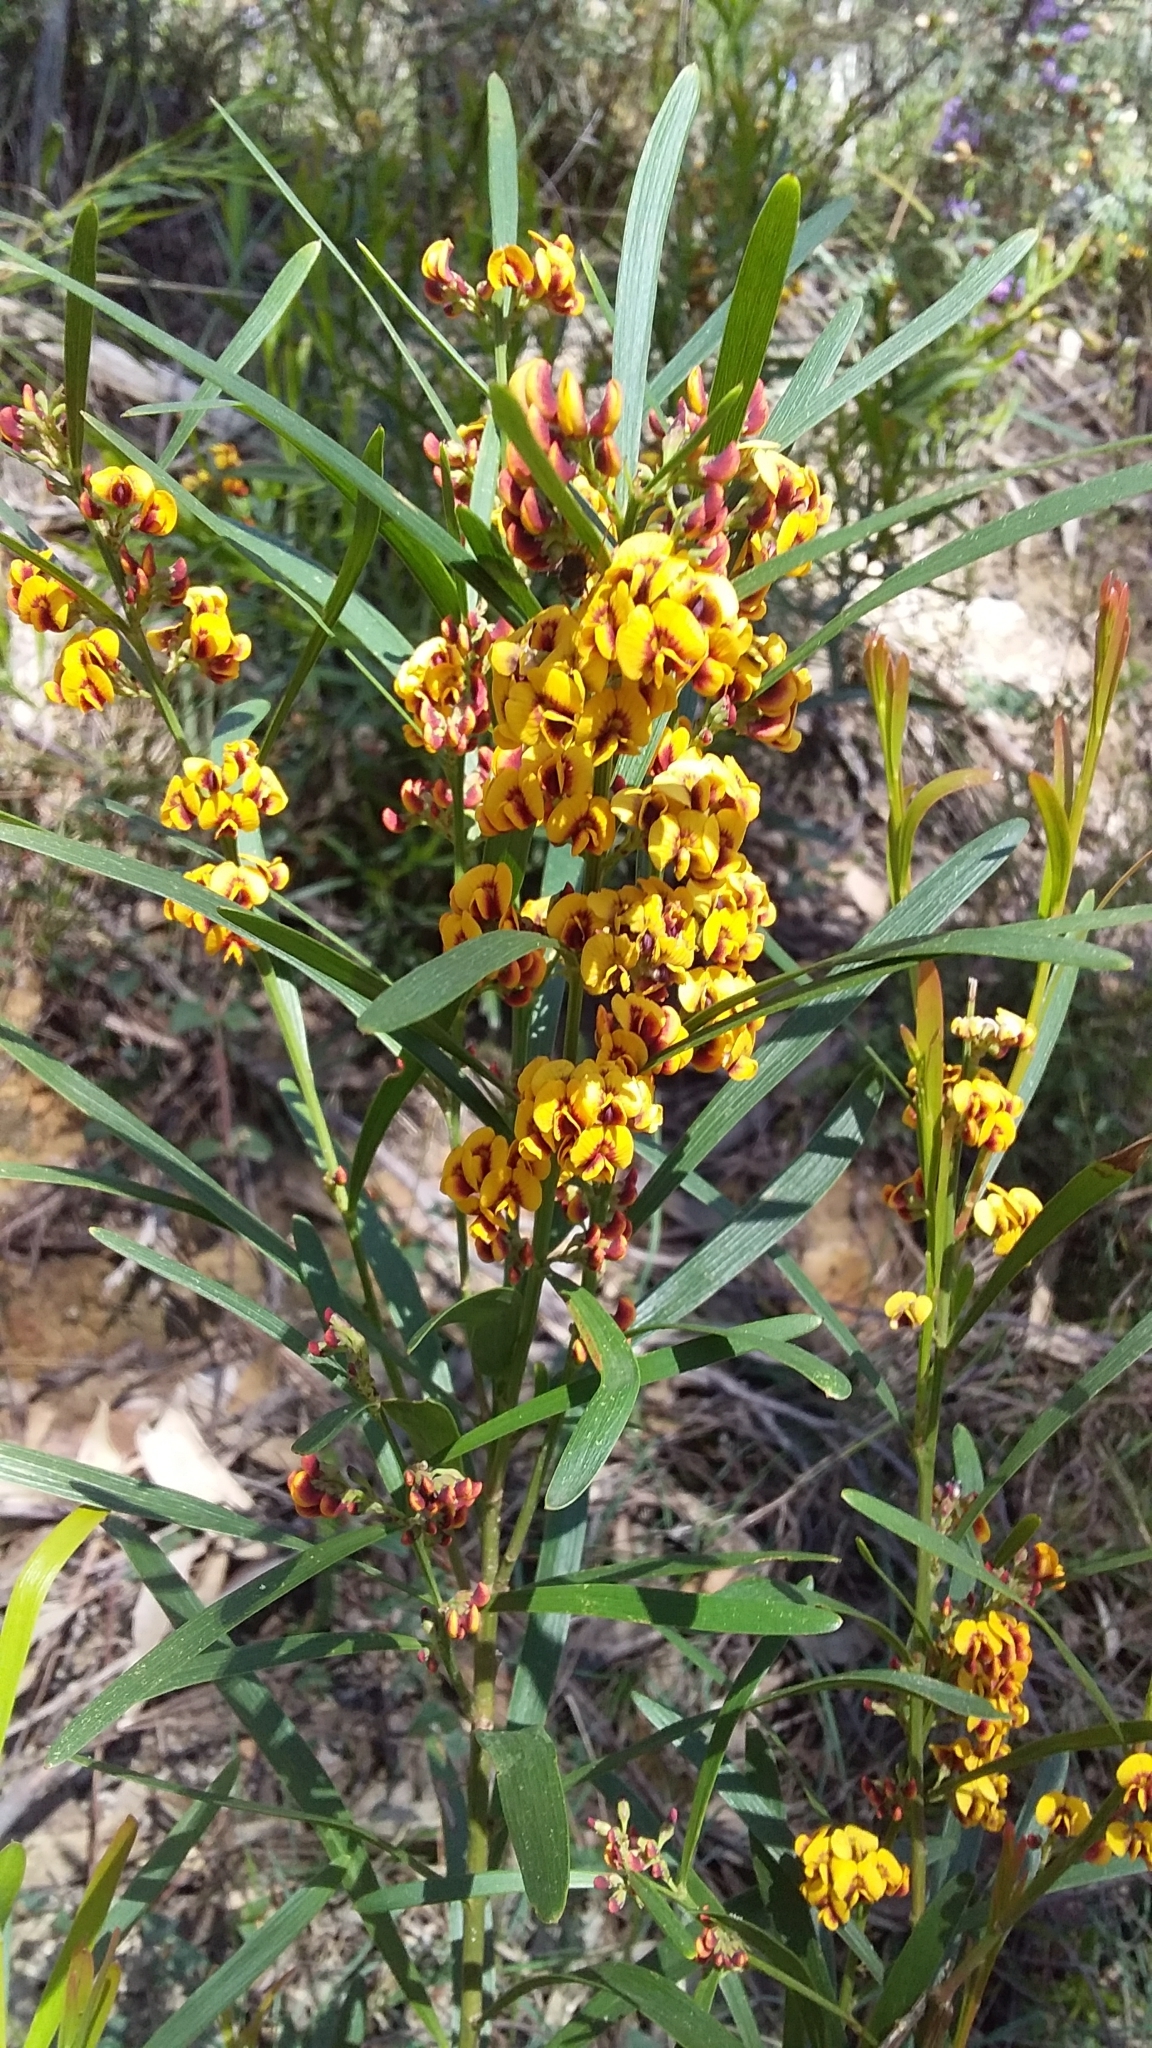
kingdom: Plantae
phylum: Tracheophyta
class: Magnoliopsida
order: Fabales
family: Fabaceae
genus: Daviesia
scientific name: Daviesia leptophylla
